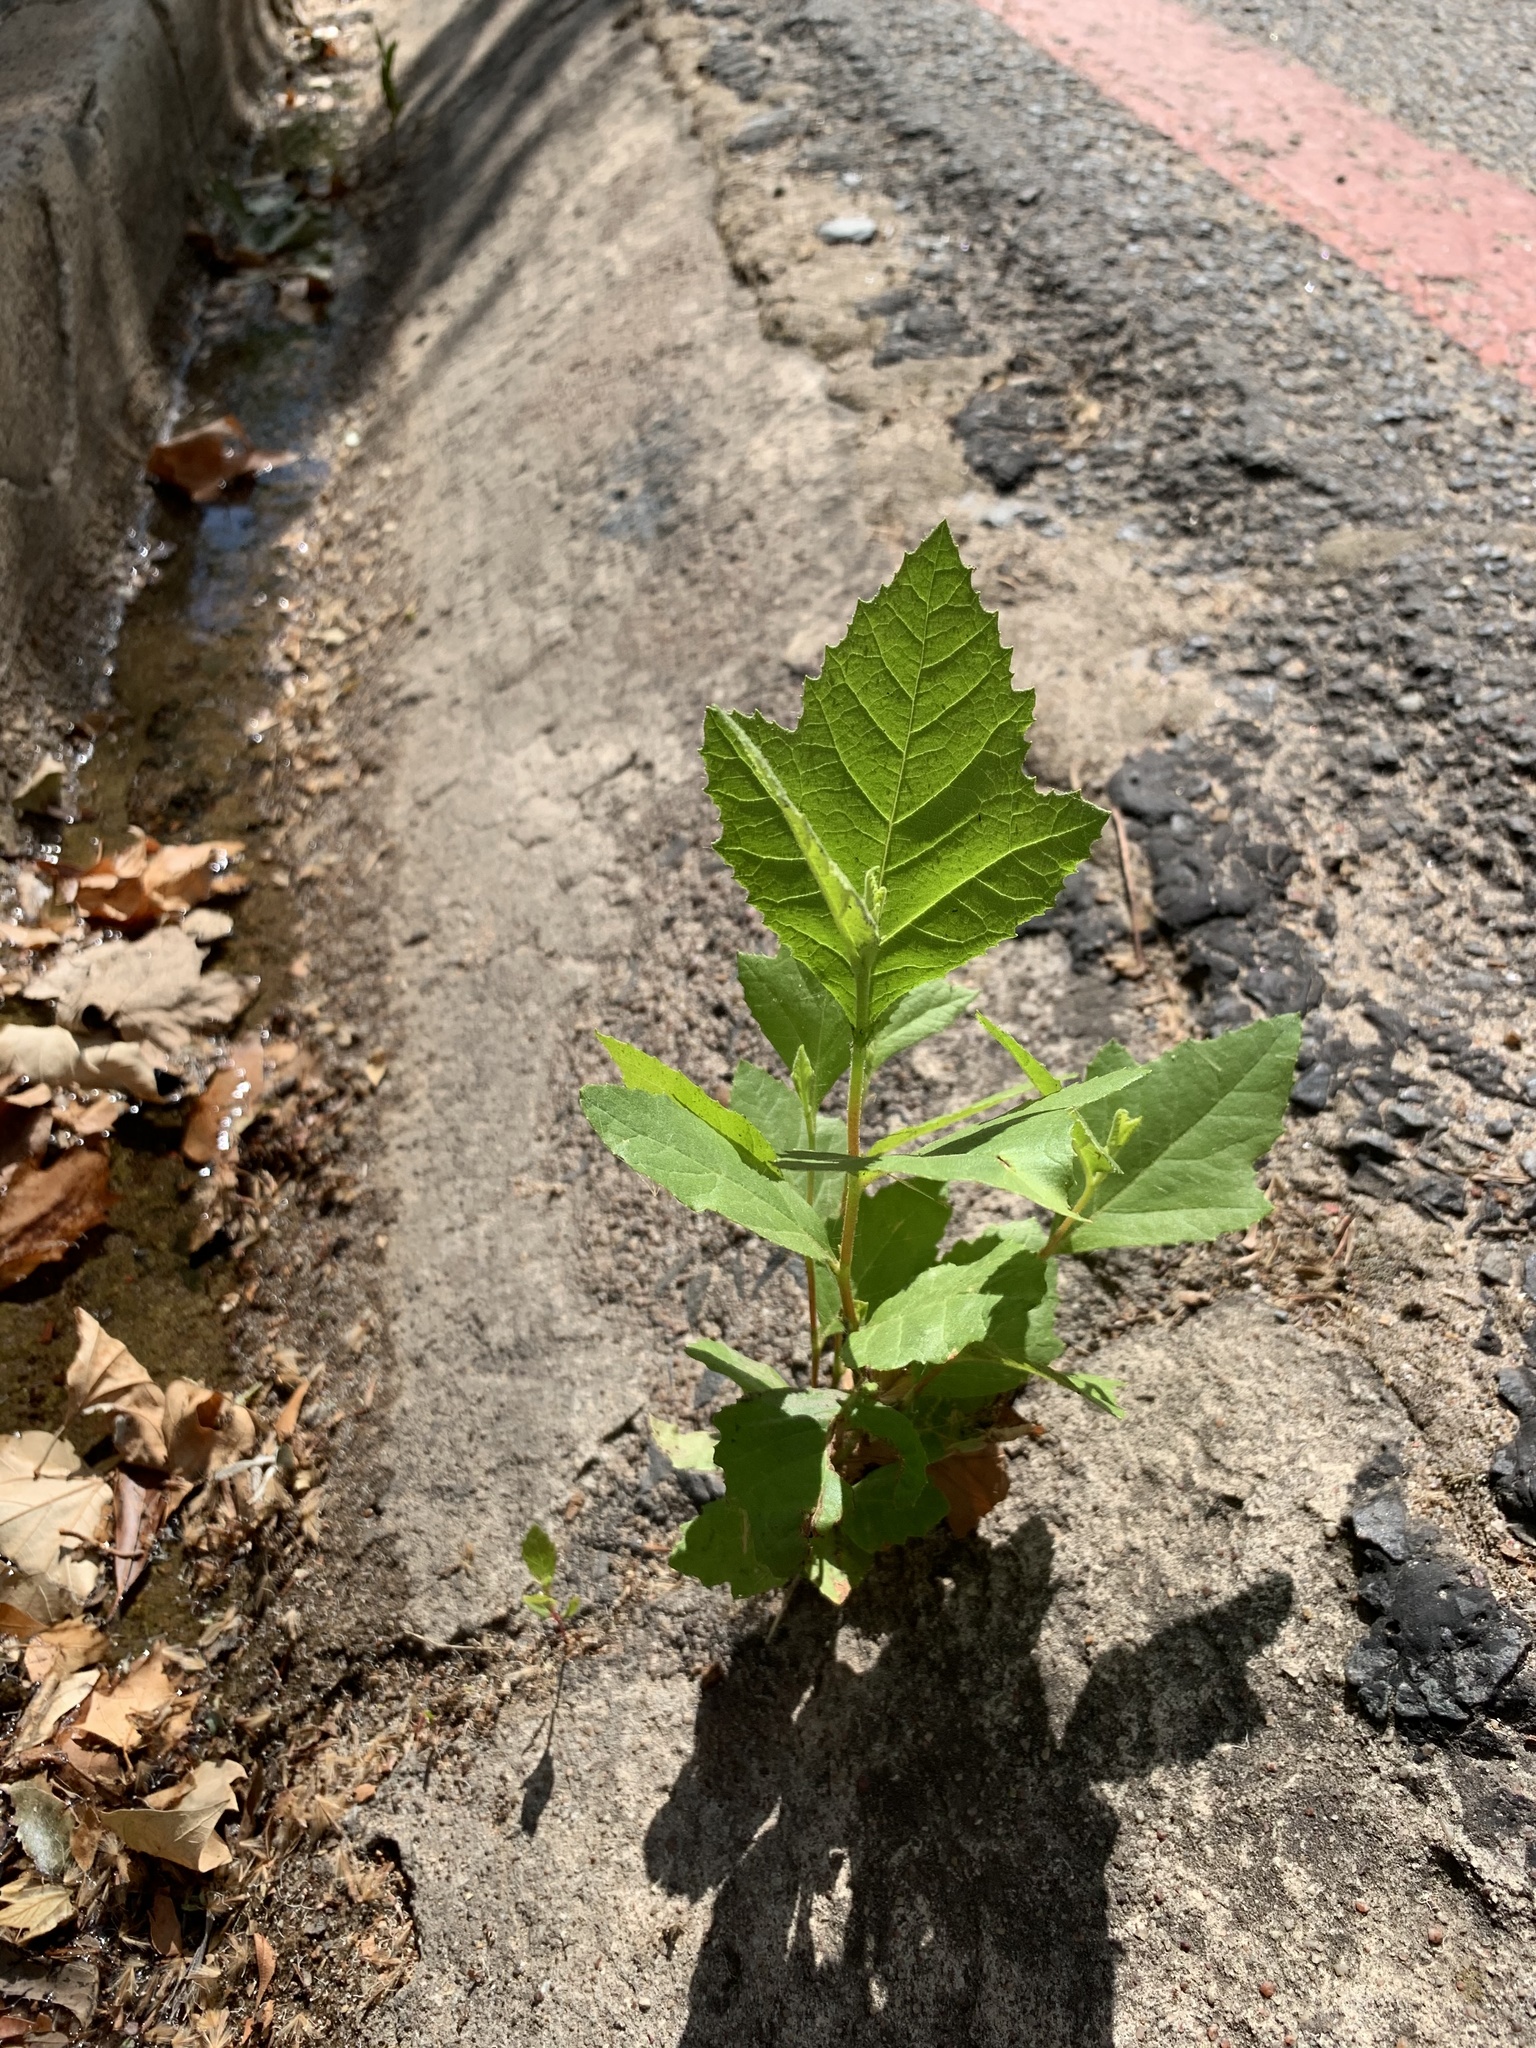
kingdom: Plantae
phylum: Tracheophyta
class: Magnoliopsida
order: Proteales
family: Platanaceae
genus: Platanus
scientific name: Platanus hispanica
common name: London plane
